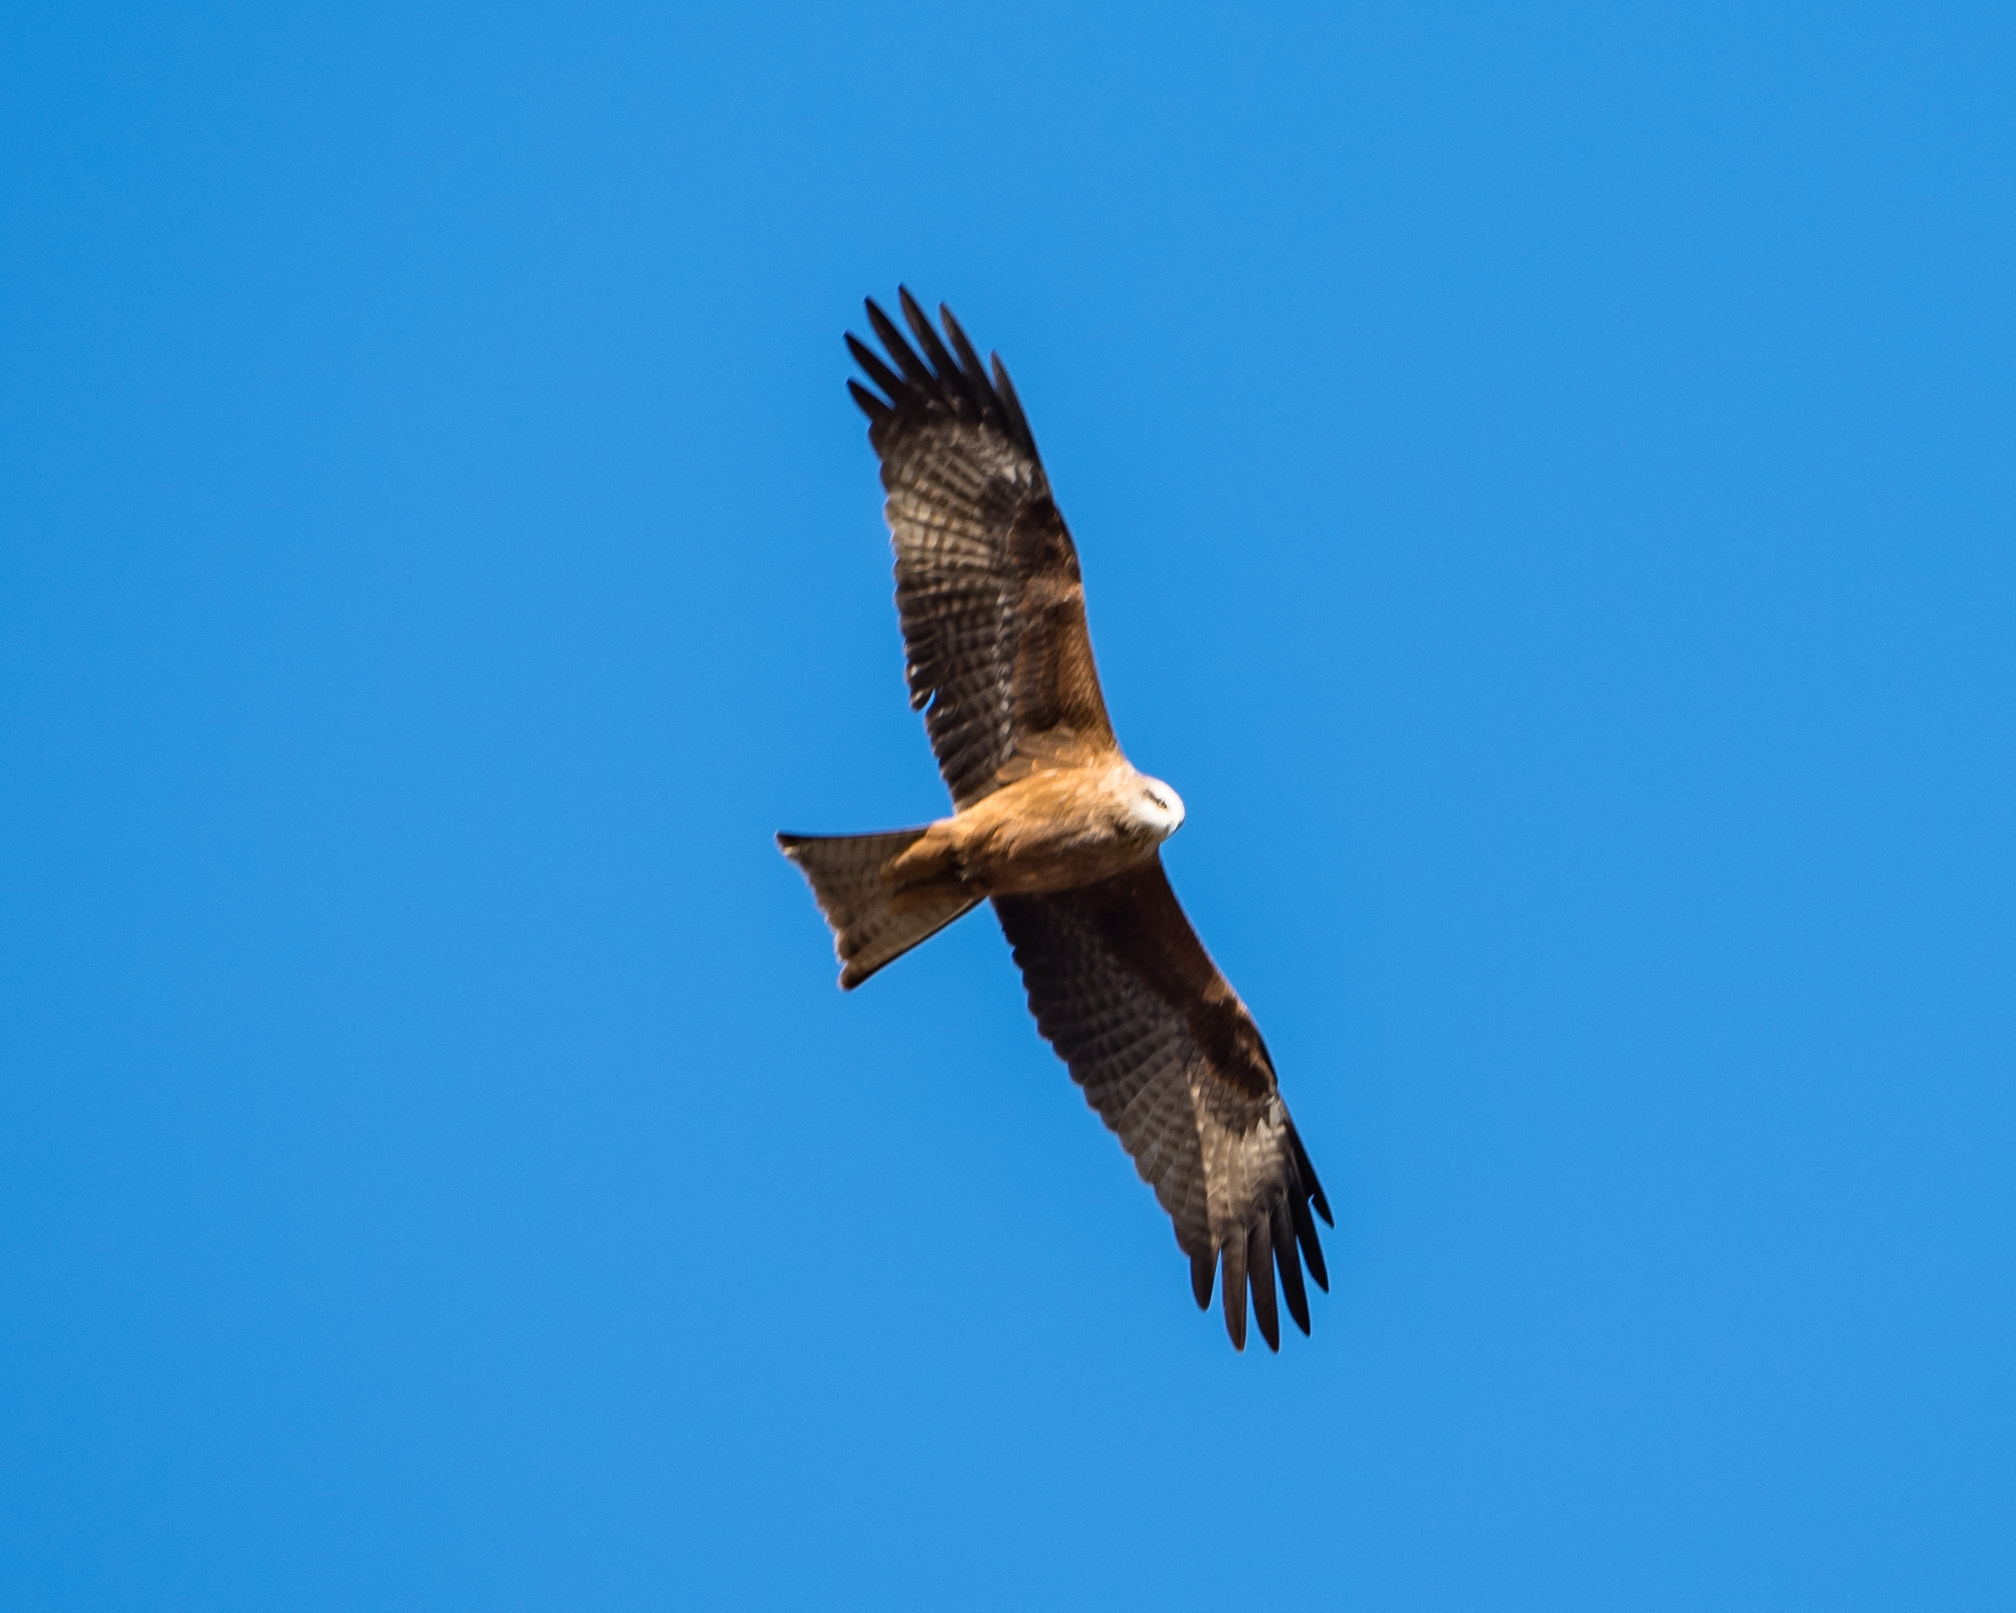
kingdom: Animalia
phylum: Chordata
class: Aves
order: Accipitriformes
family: Accipitridae
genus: Milvus
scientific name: Milvus migrans
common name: Black kite
